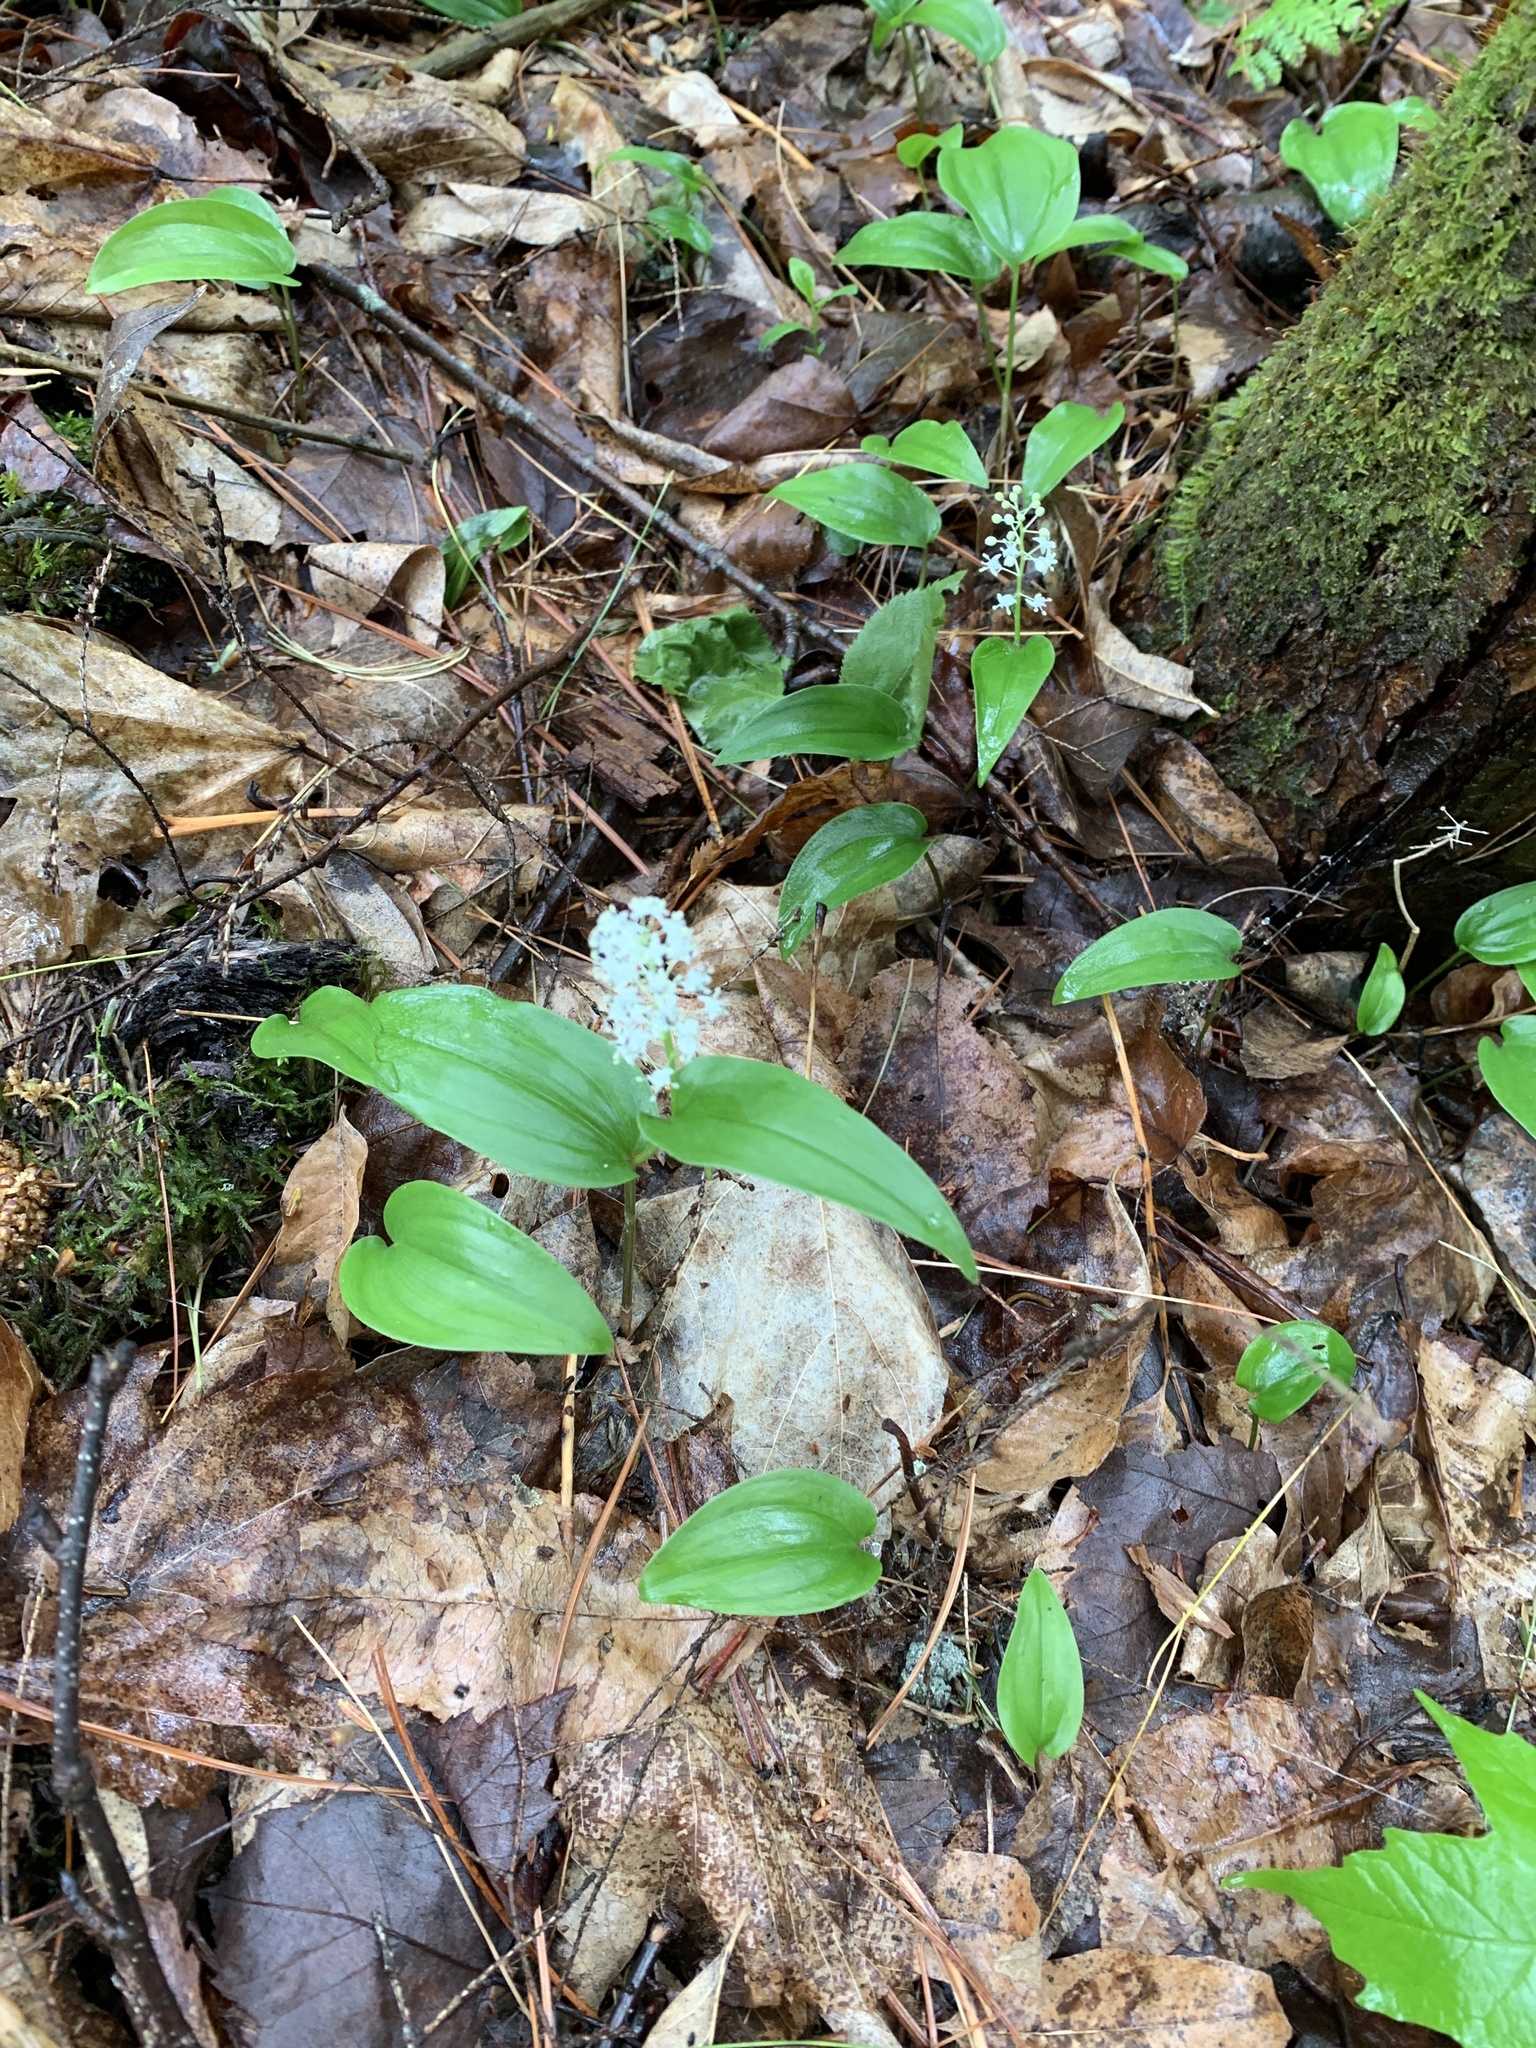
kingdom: Plantae
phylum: Tracheophyta
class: Liliopsida
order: Asparagales
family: Asparagaceae
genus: Maianthemum
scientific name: Maianthemum canadense
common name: False lily-of-the-valley
